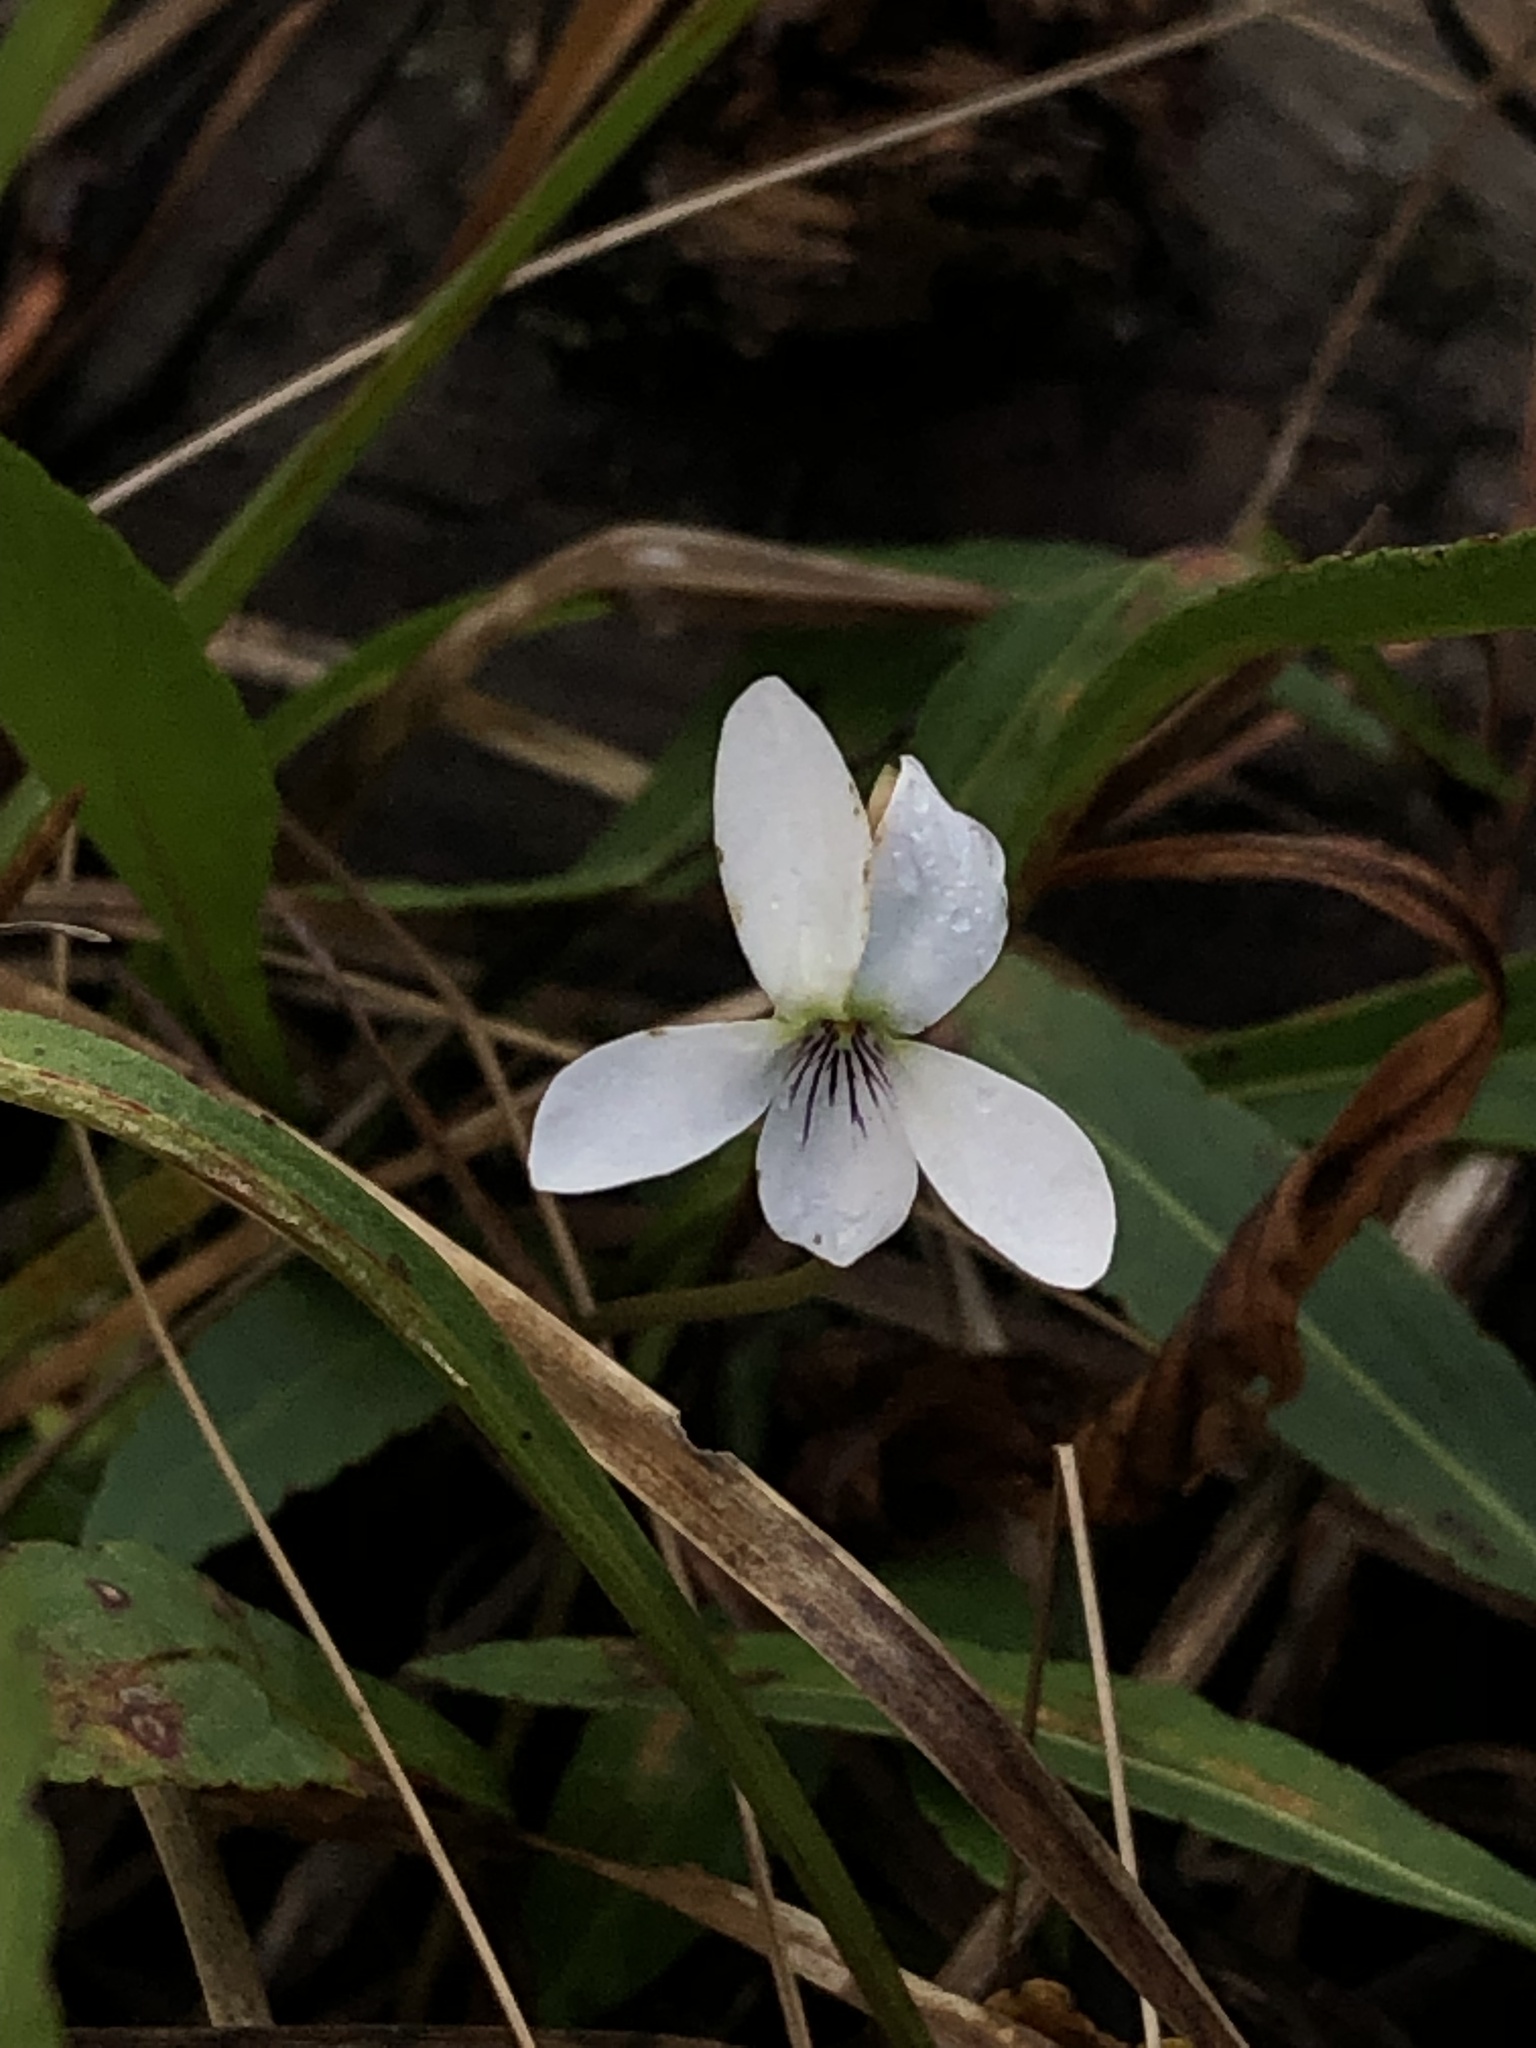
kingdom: Plantae
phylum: Tracheophyta
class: Magnoliopsida
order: Malpighiales
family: Violaceae
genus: Viola
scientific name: Viola vittata
